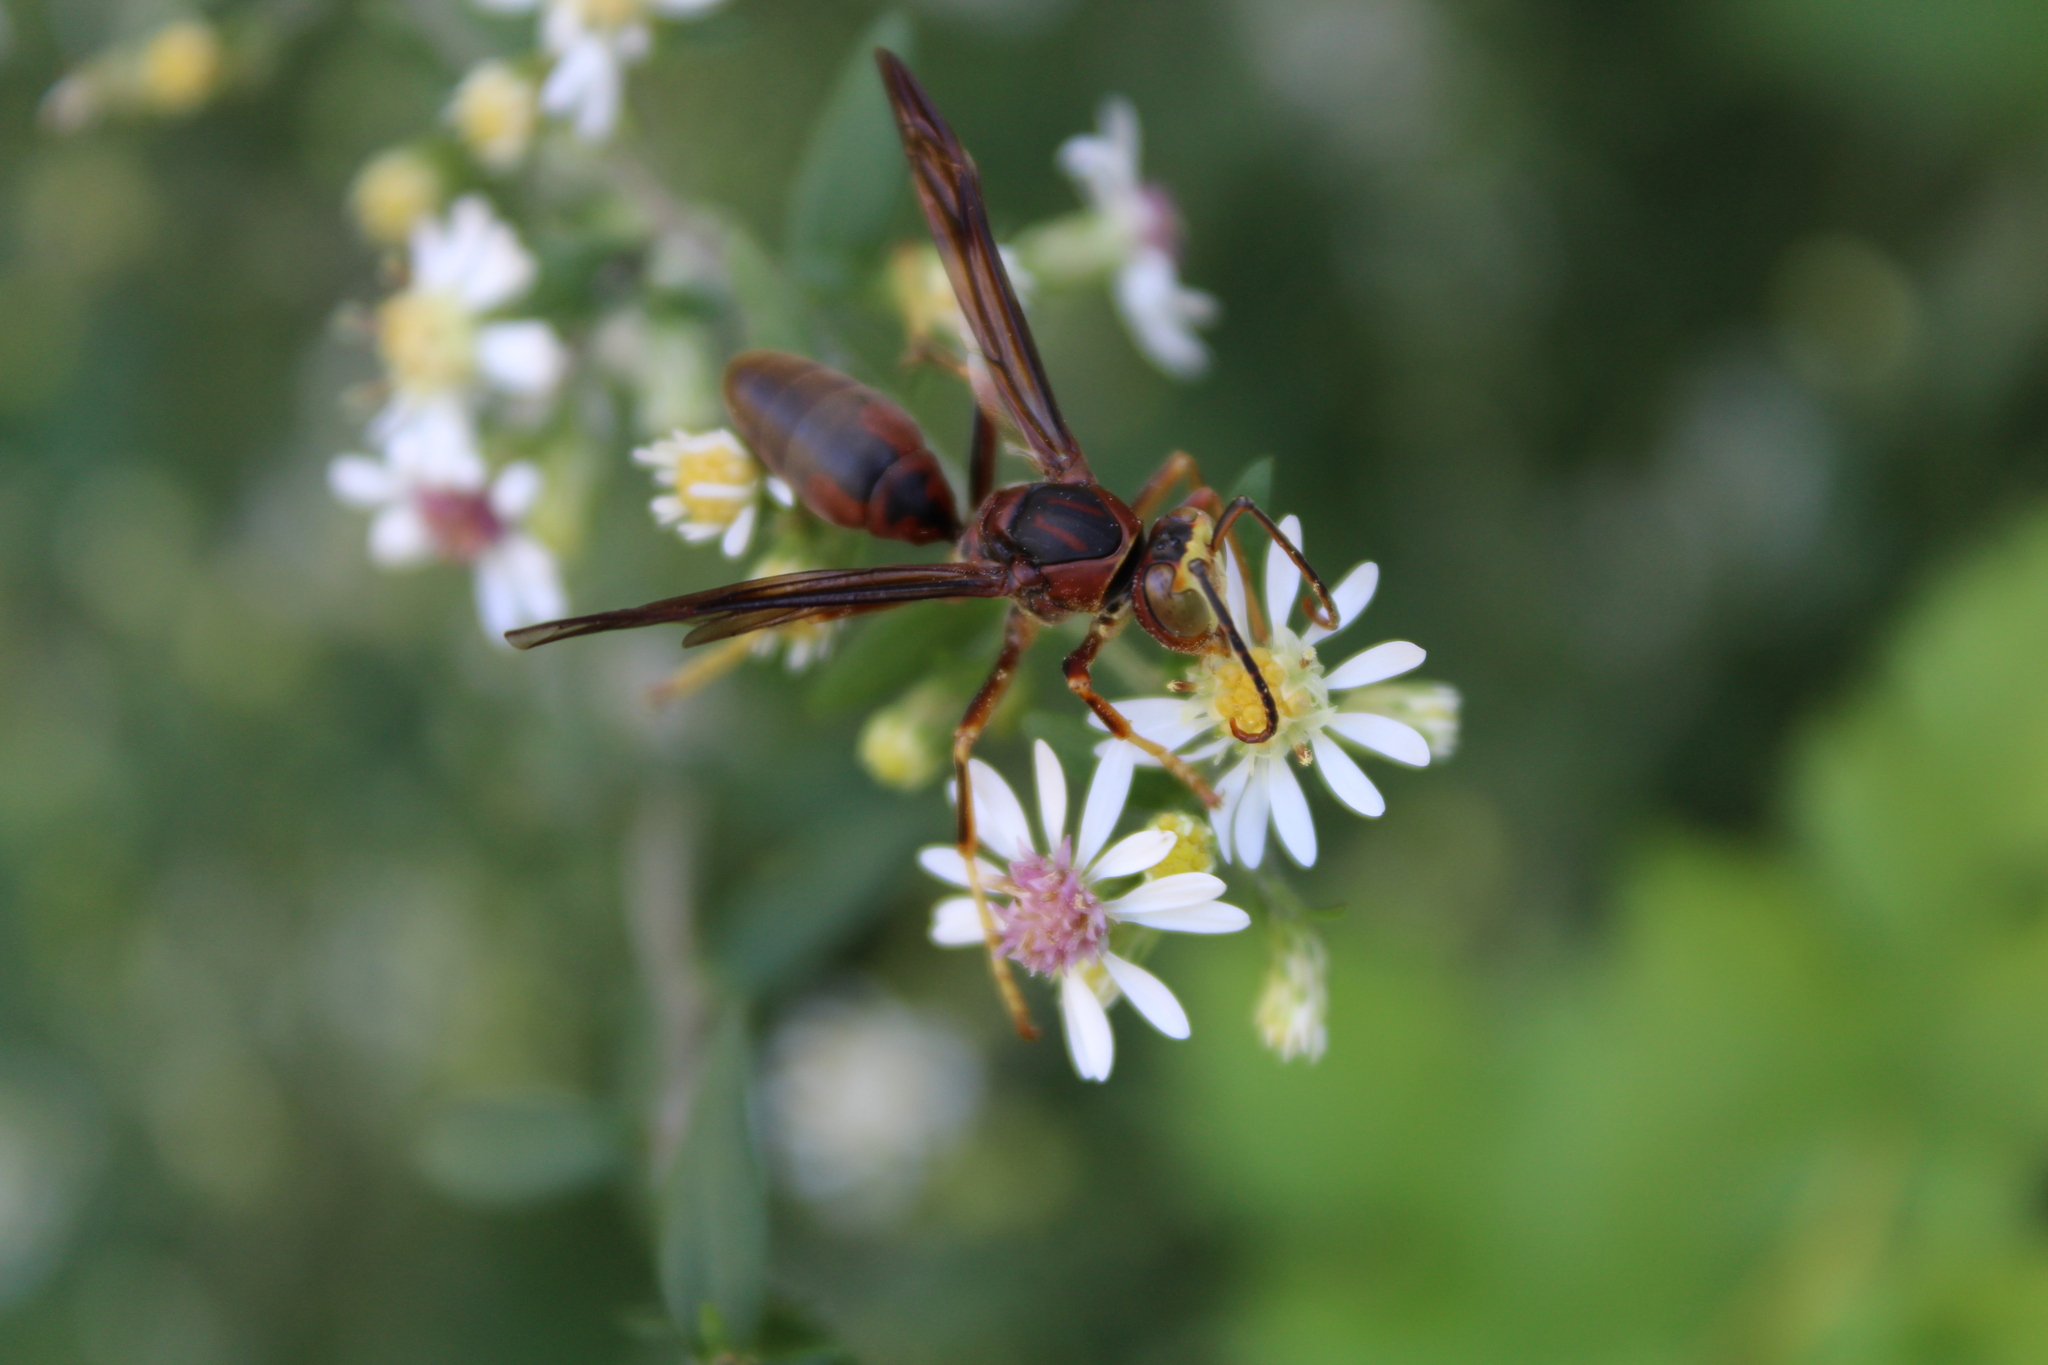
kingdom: Animalia
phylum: Arthropoda
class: Insecta
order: Hymenoptera
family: Eumenidae
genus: Polistes
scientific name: Polistes metricus
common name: Metric paper wasp
